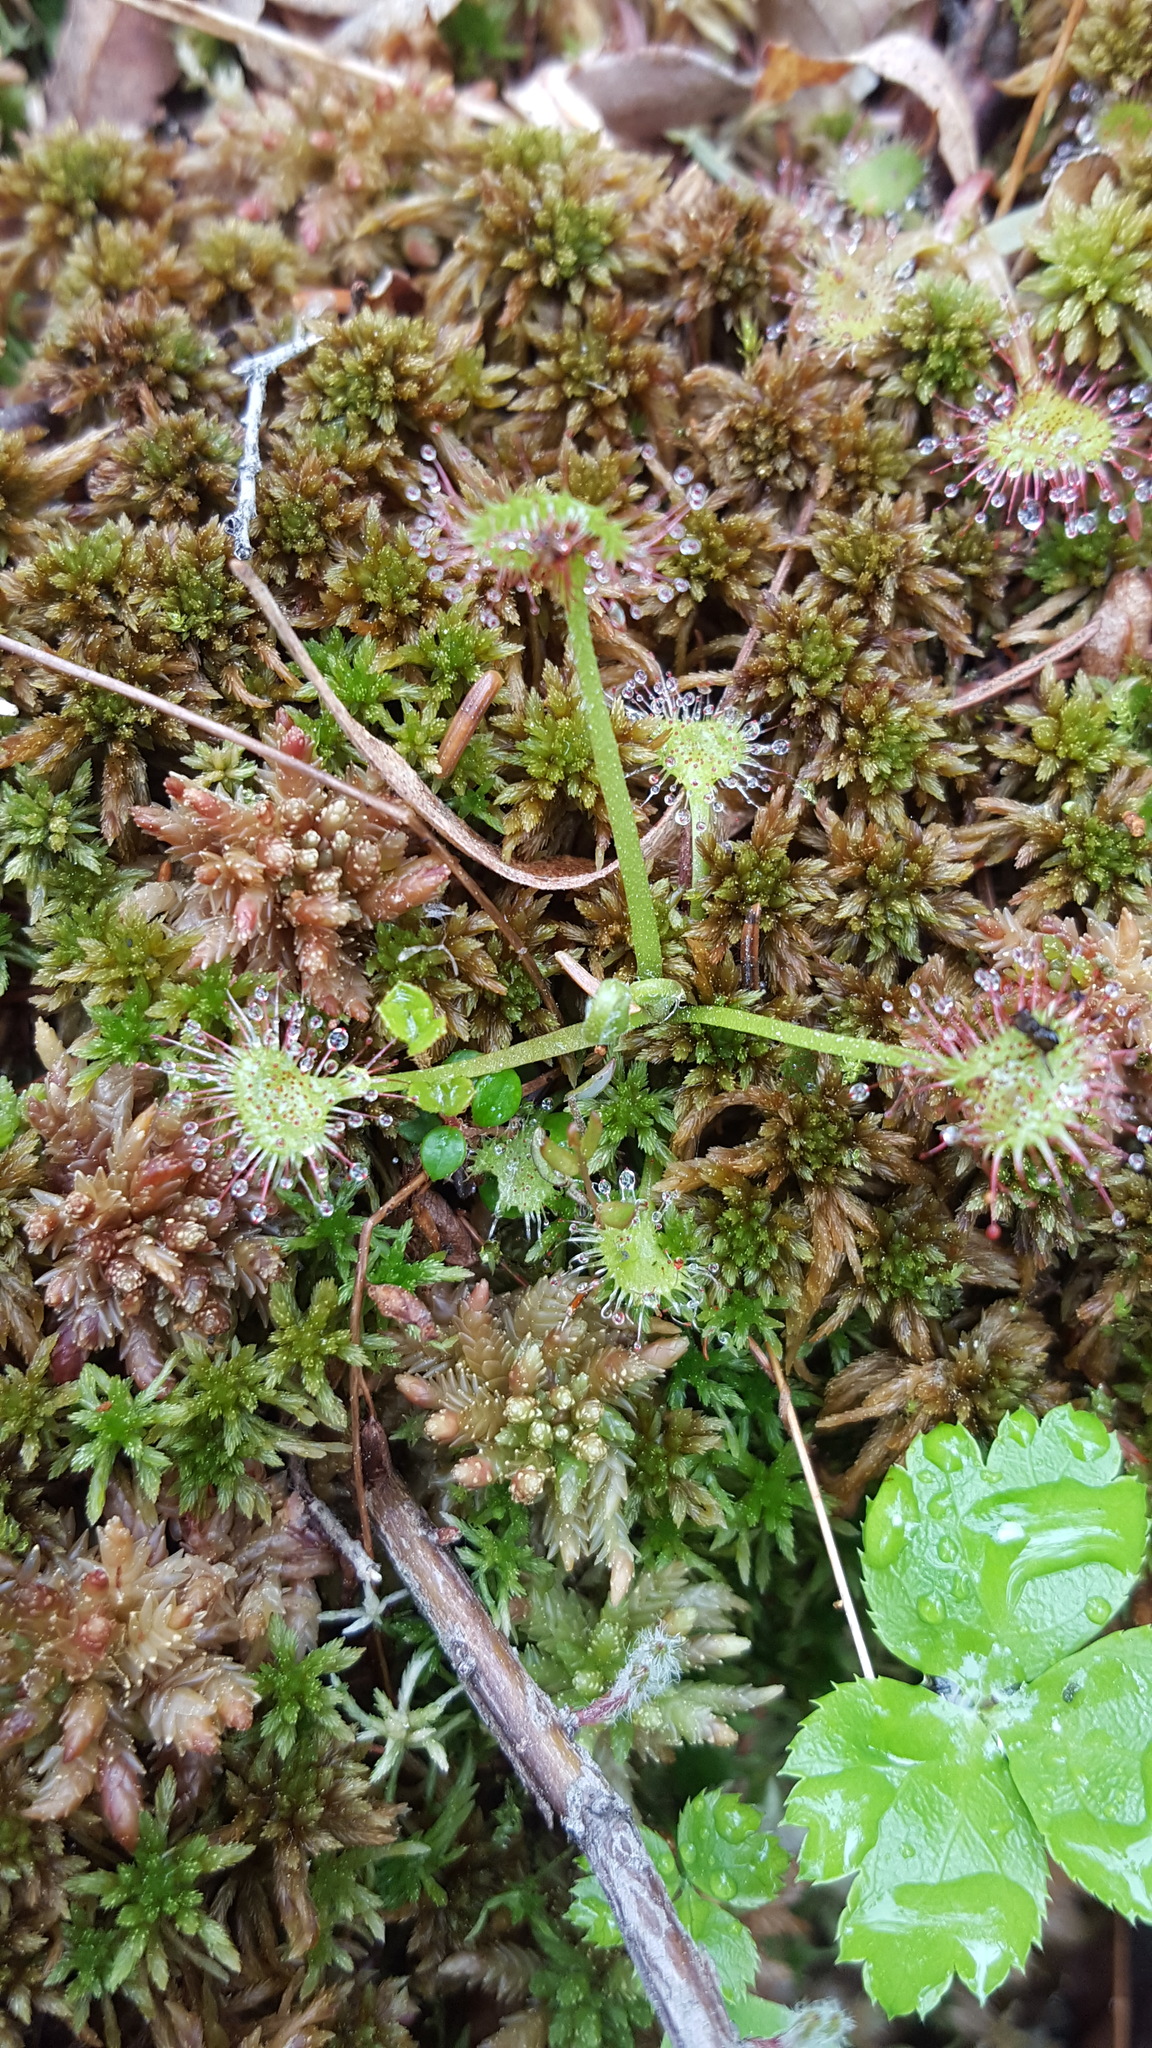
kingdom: Plantae
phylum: Tracheophyta
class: Magnoliopsida
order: Caryophyllales
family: Droseraceae
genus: Drosera
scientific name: Drosera rotundifolia
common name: Round-leaved sundew
